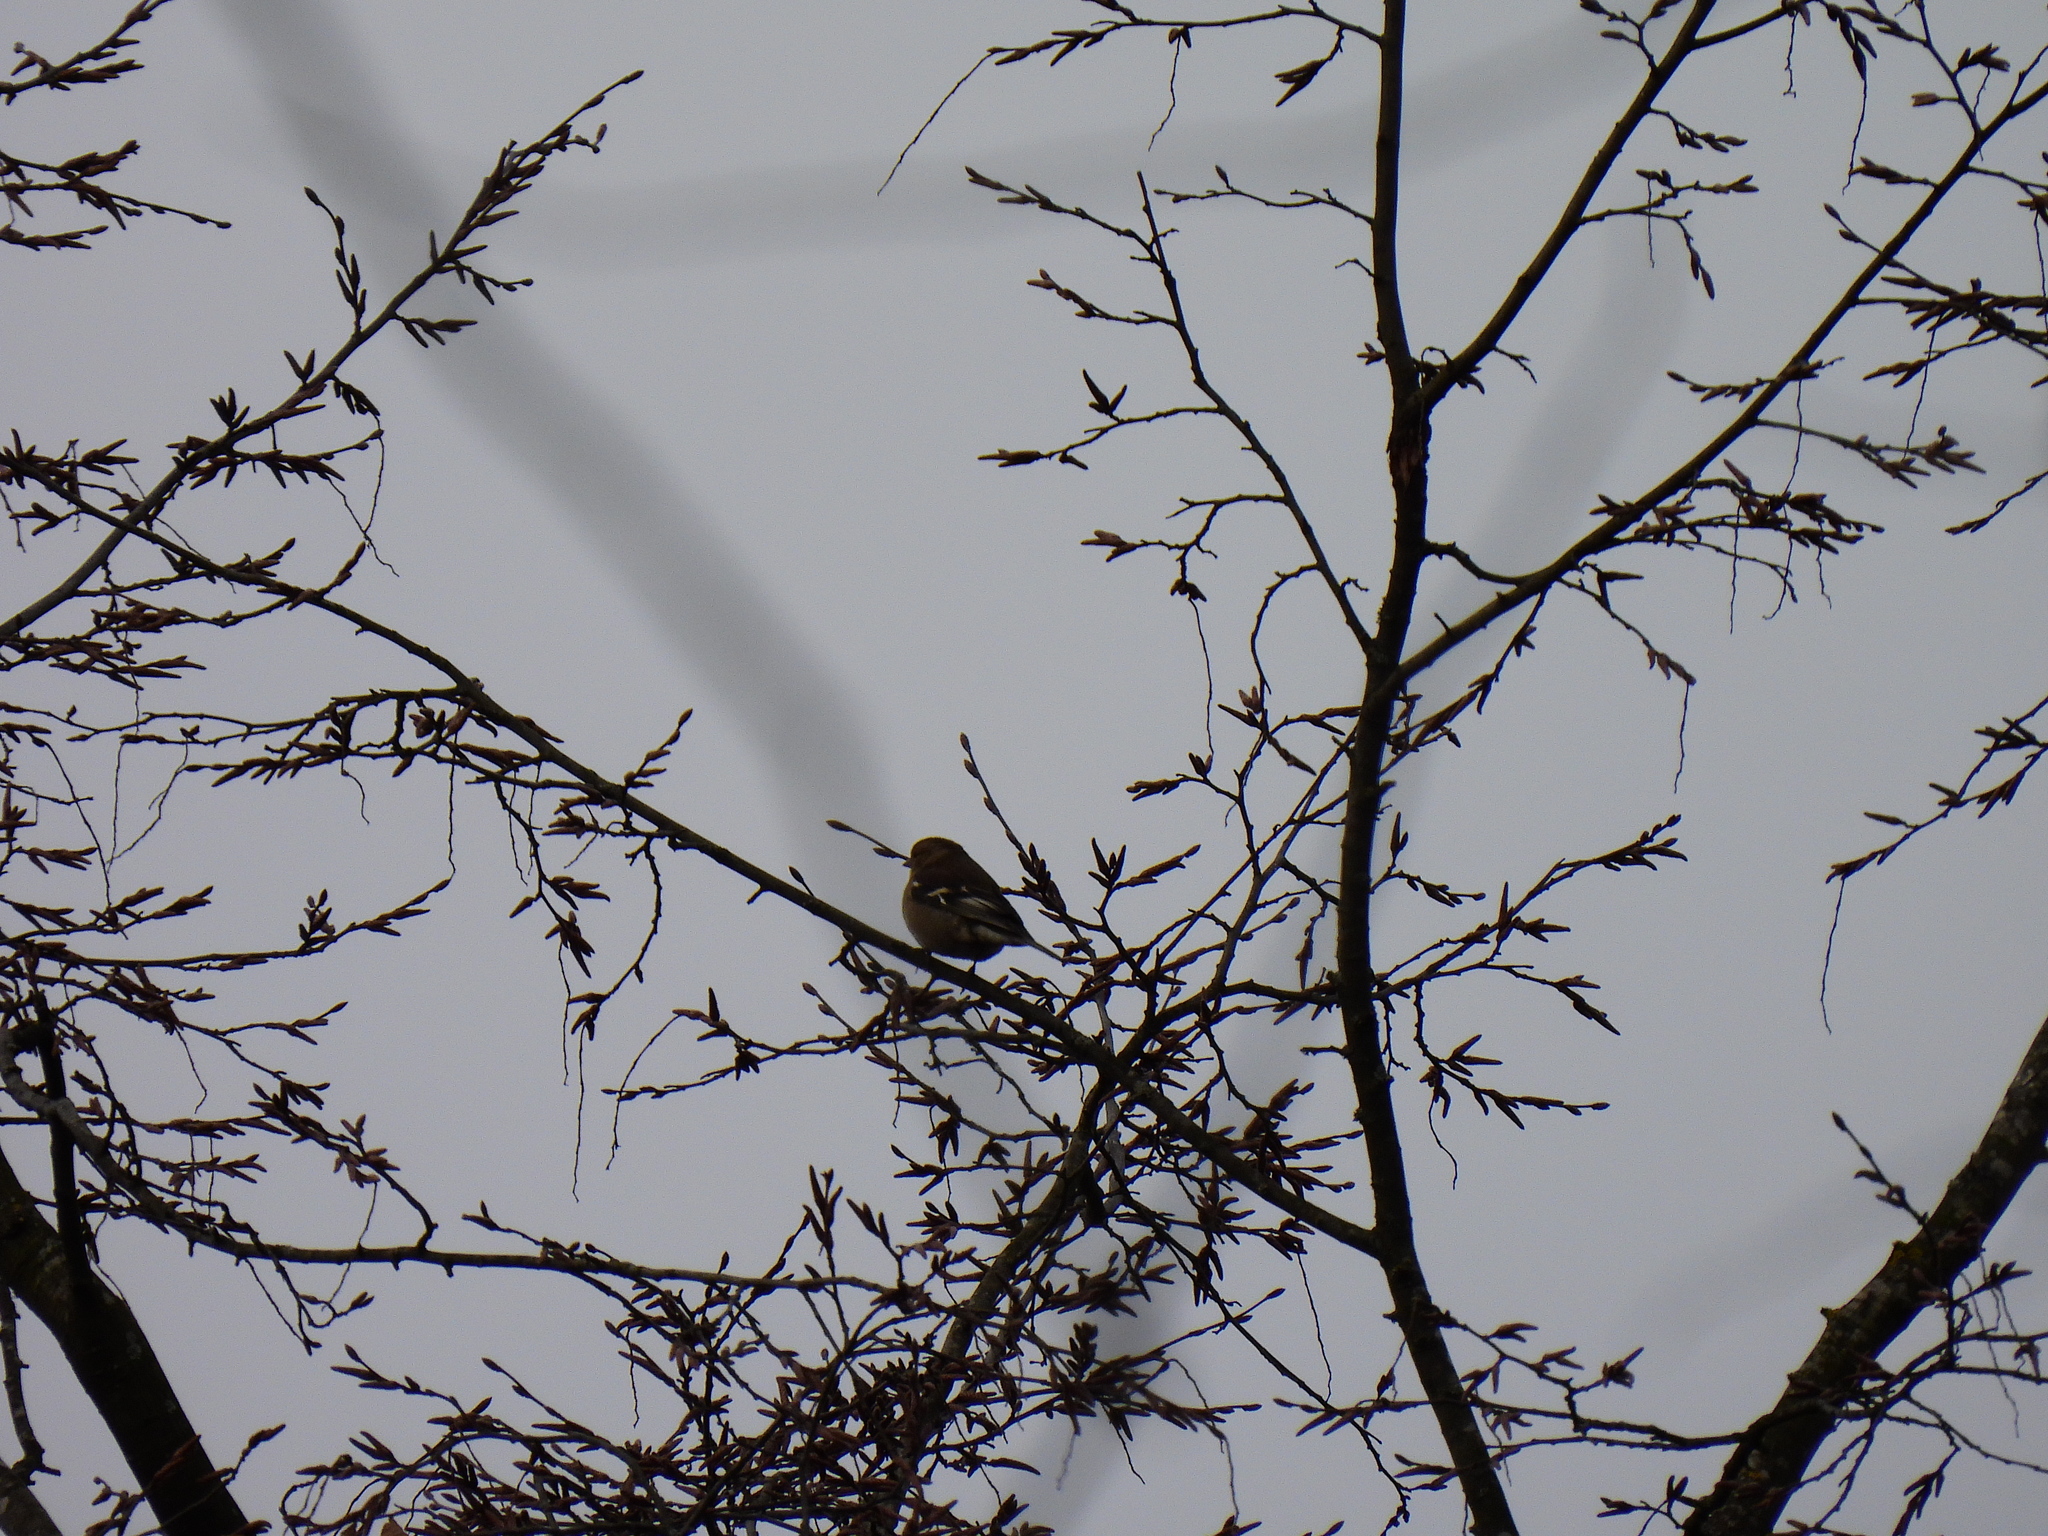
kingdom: Animalia
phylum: Chordata
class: Aves
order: Passeriformes
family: Fringillidae
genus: Fringilla
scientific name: Fringilla coelebs
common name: Common chaffinch
